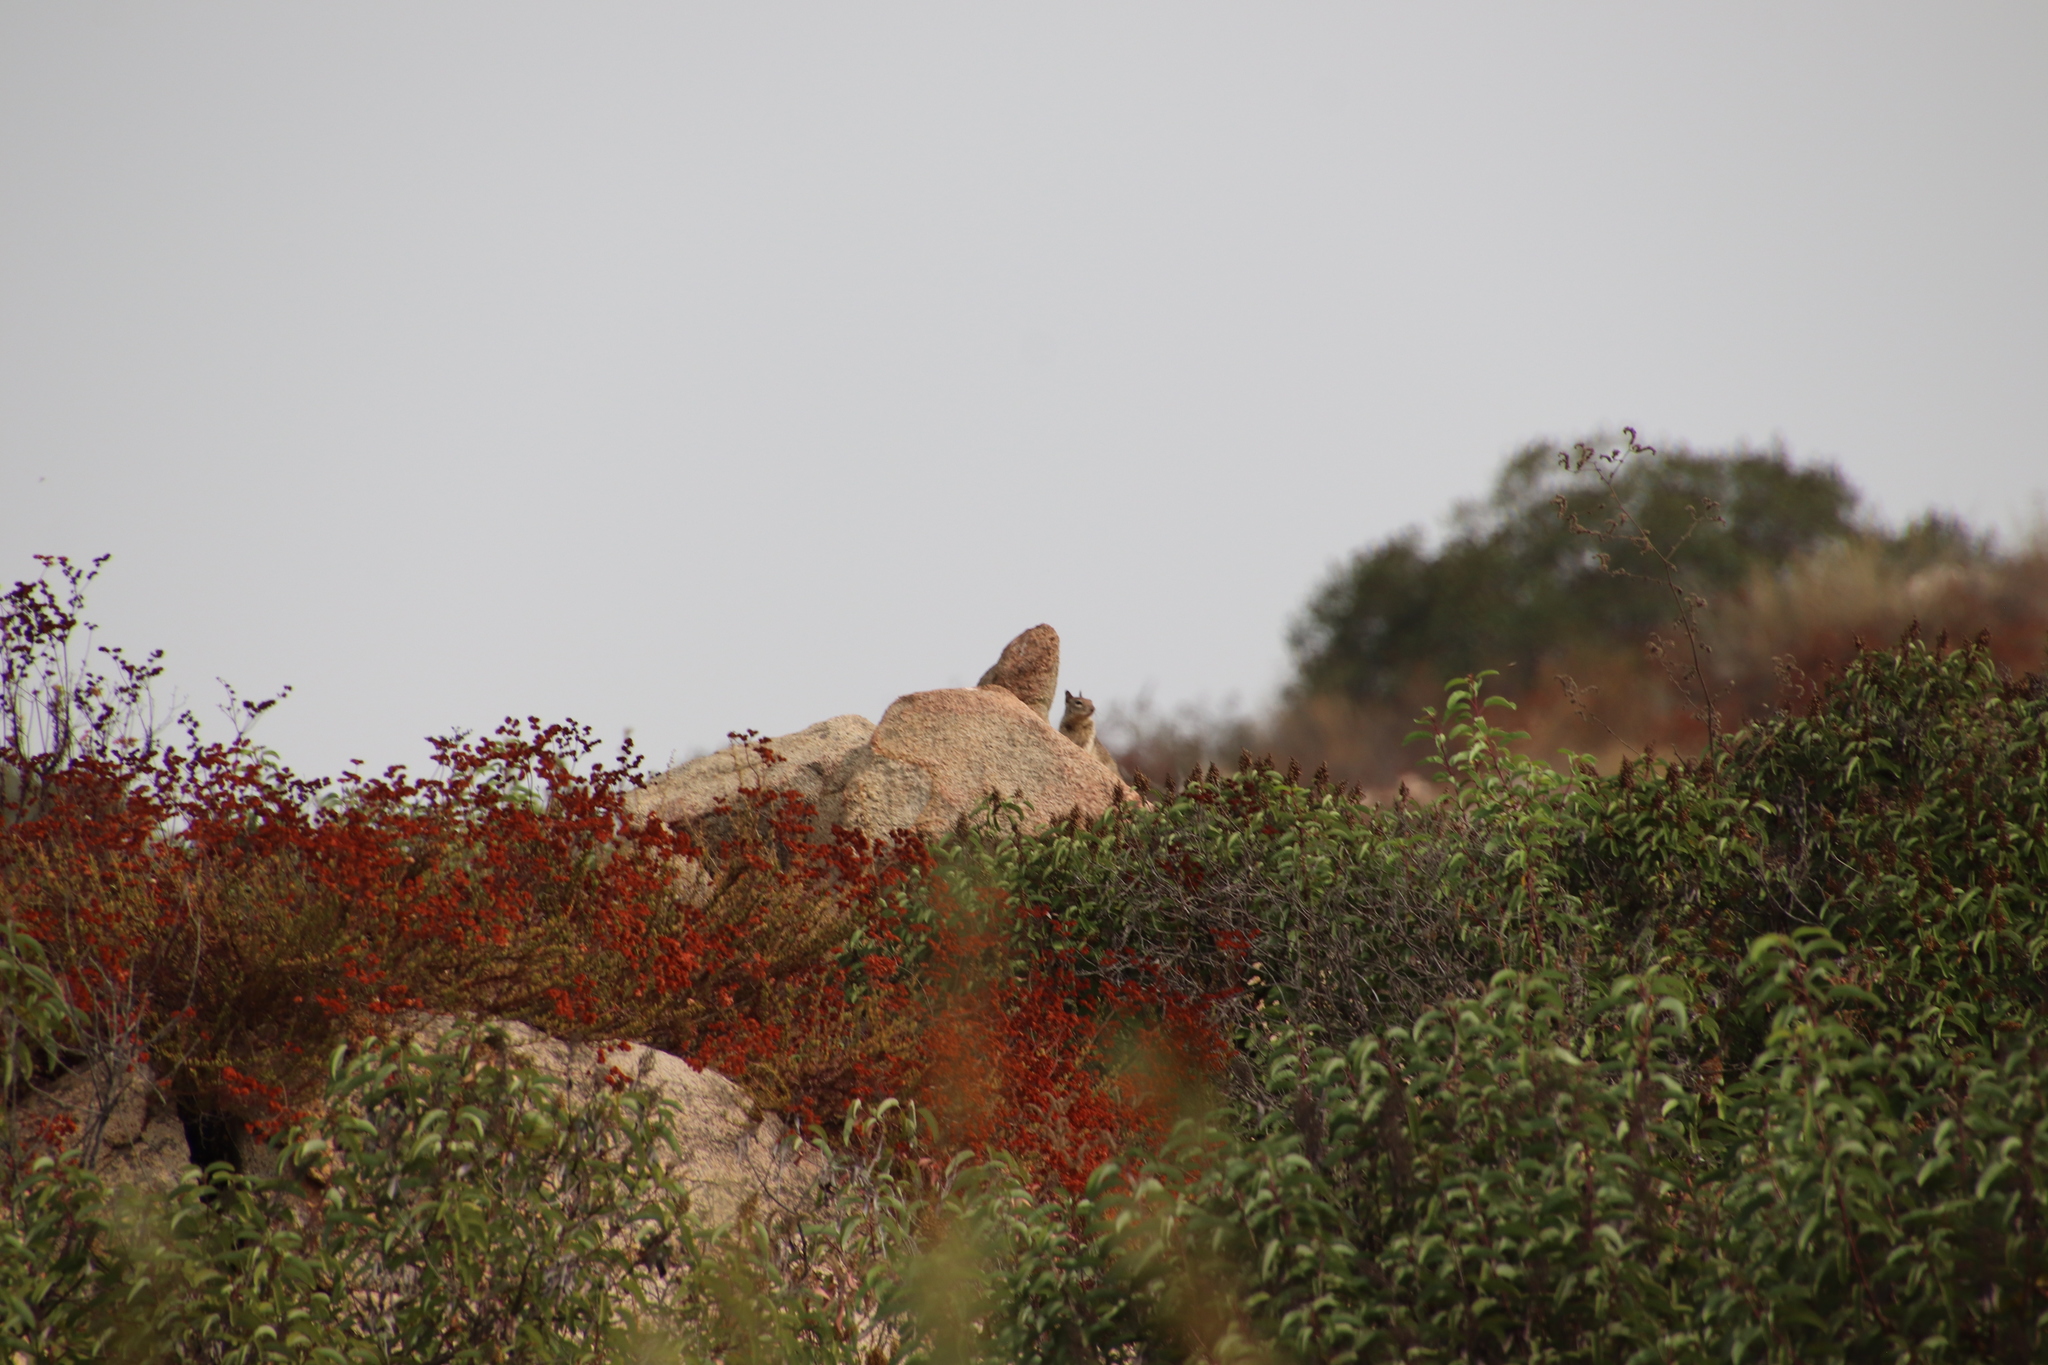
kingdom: Animalia
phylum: Chordata
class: Mammalia
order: Rodentia
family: Sciuridae
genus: Otospermophilus
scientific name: Otospermophilus beecheyi
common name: California ground squirrel
